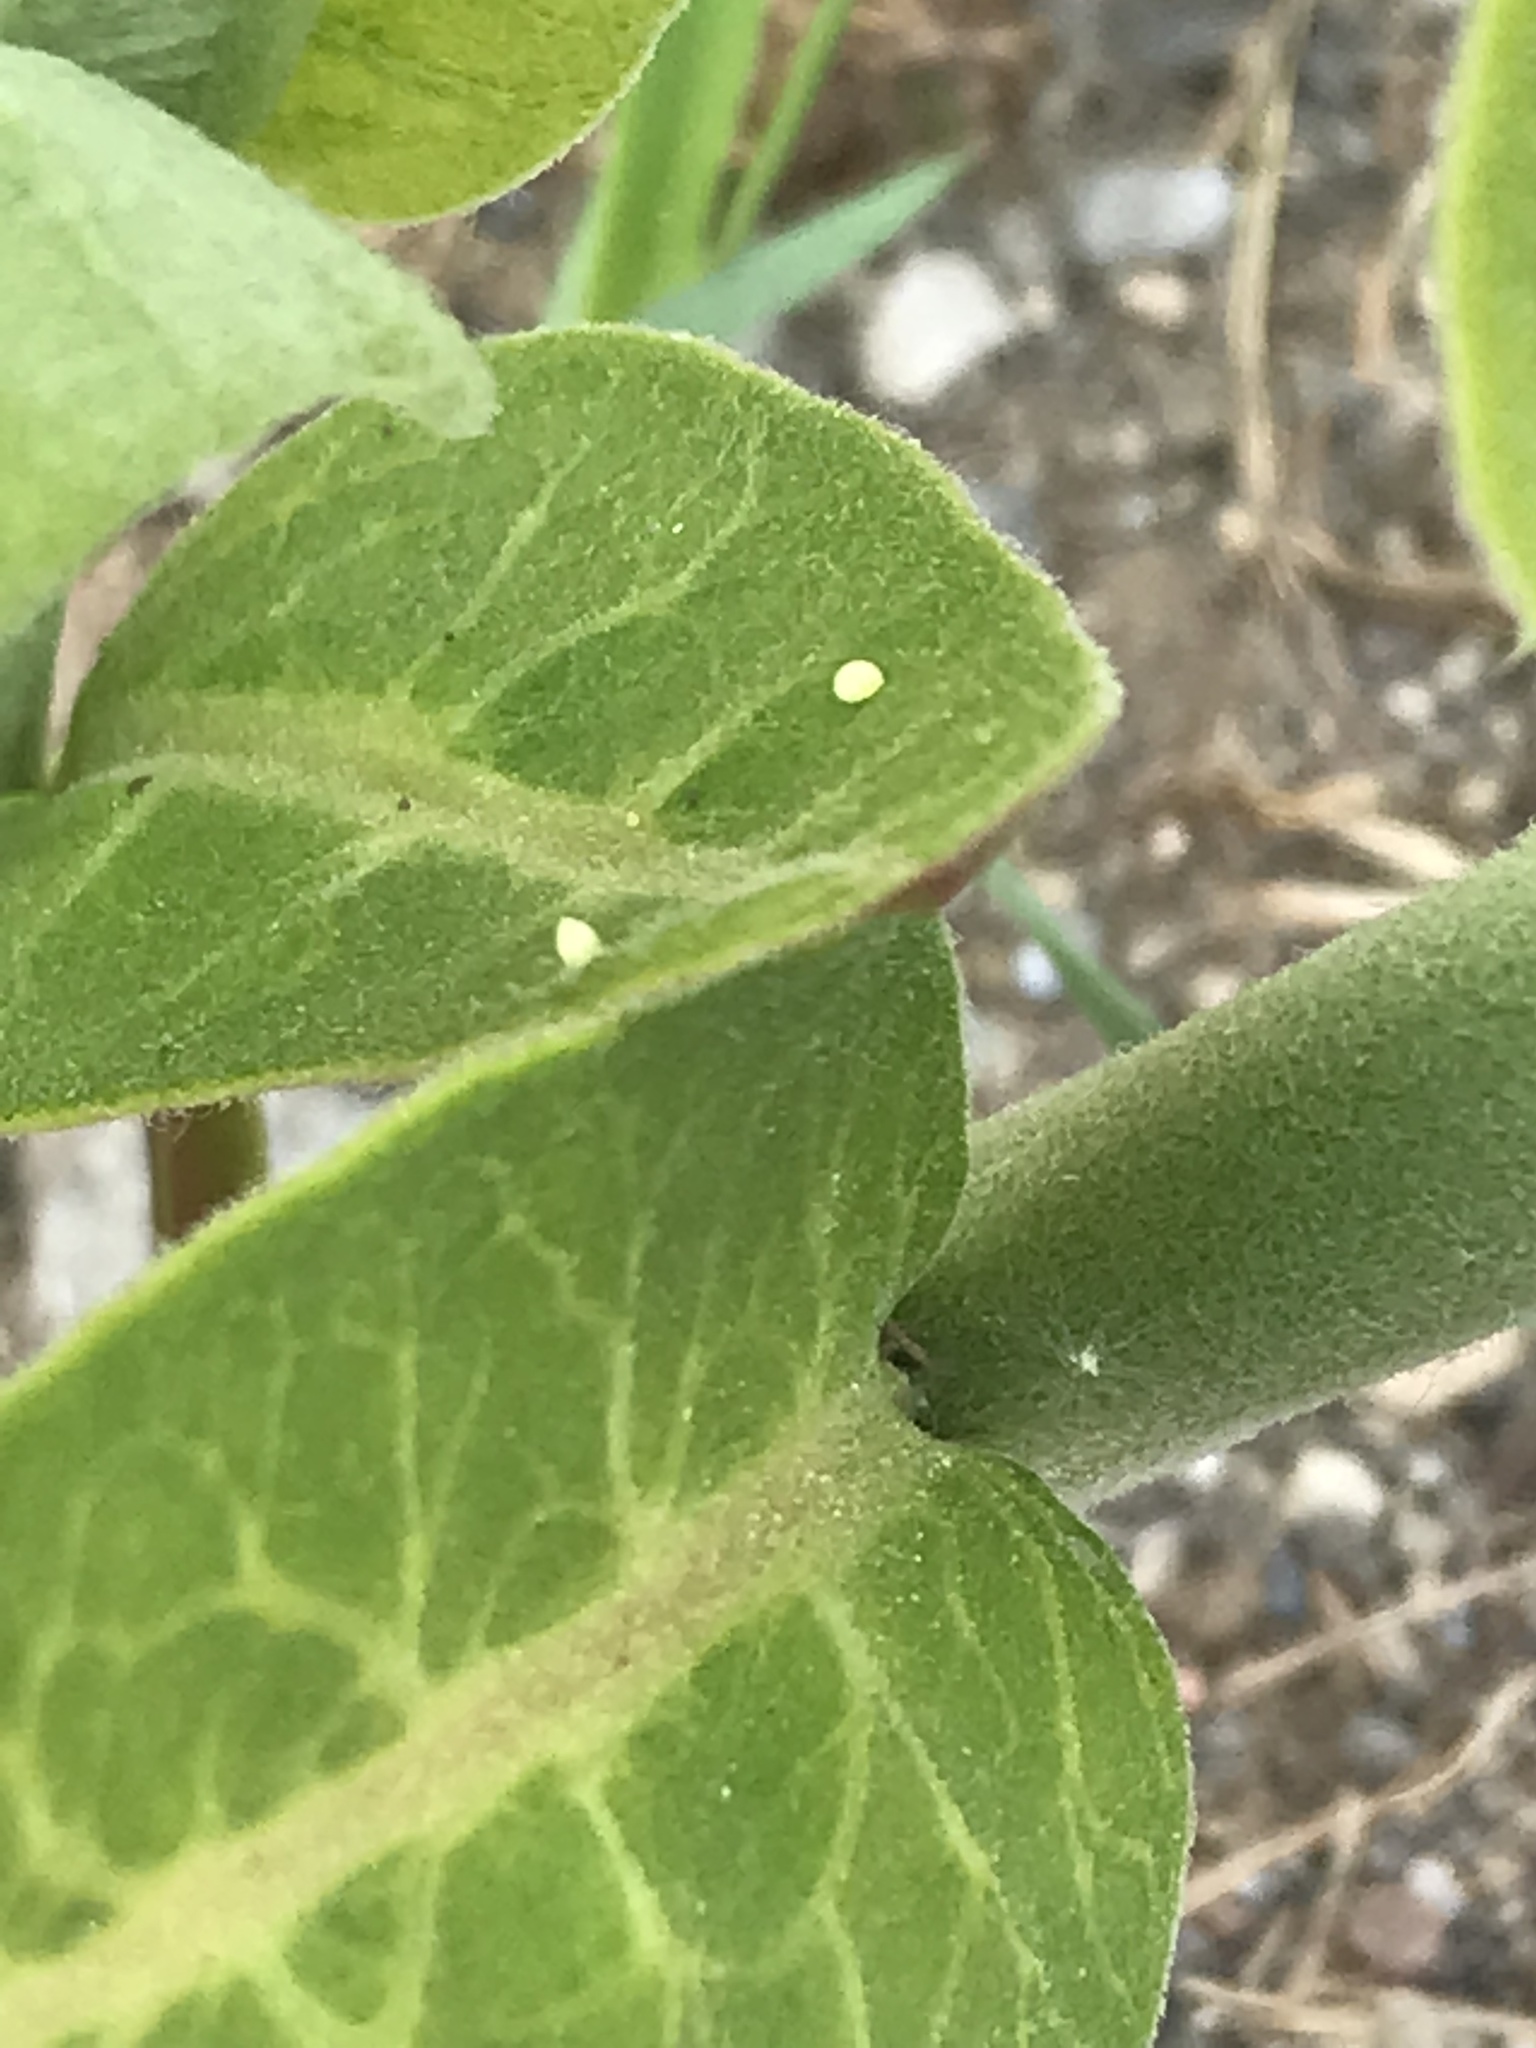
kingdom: Animalia
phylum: Arthropoda
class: Insecta
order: Lepidoptera
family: Nymphalidae
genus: Danaus
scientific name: Danaus plexippus
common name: Monarch
